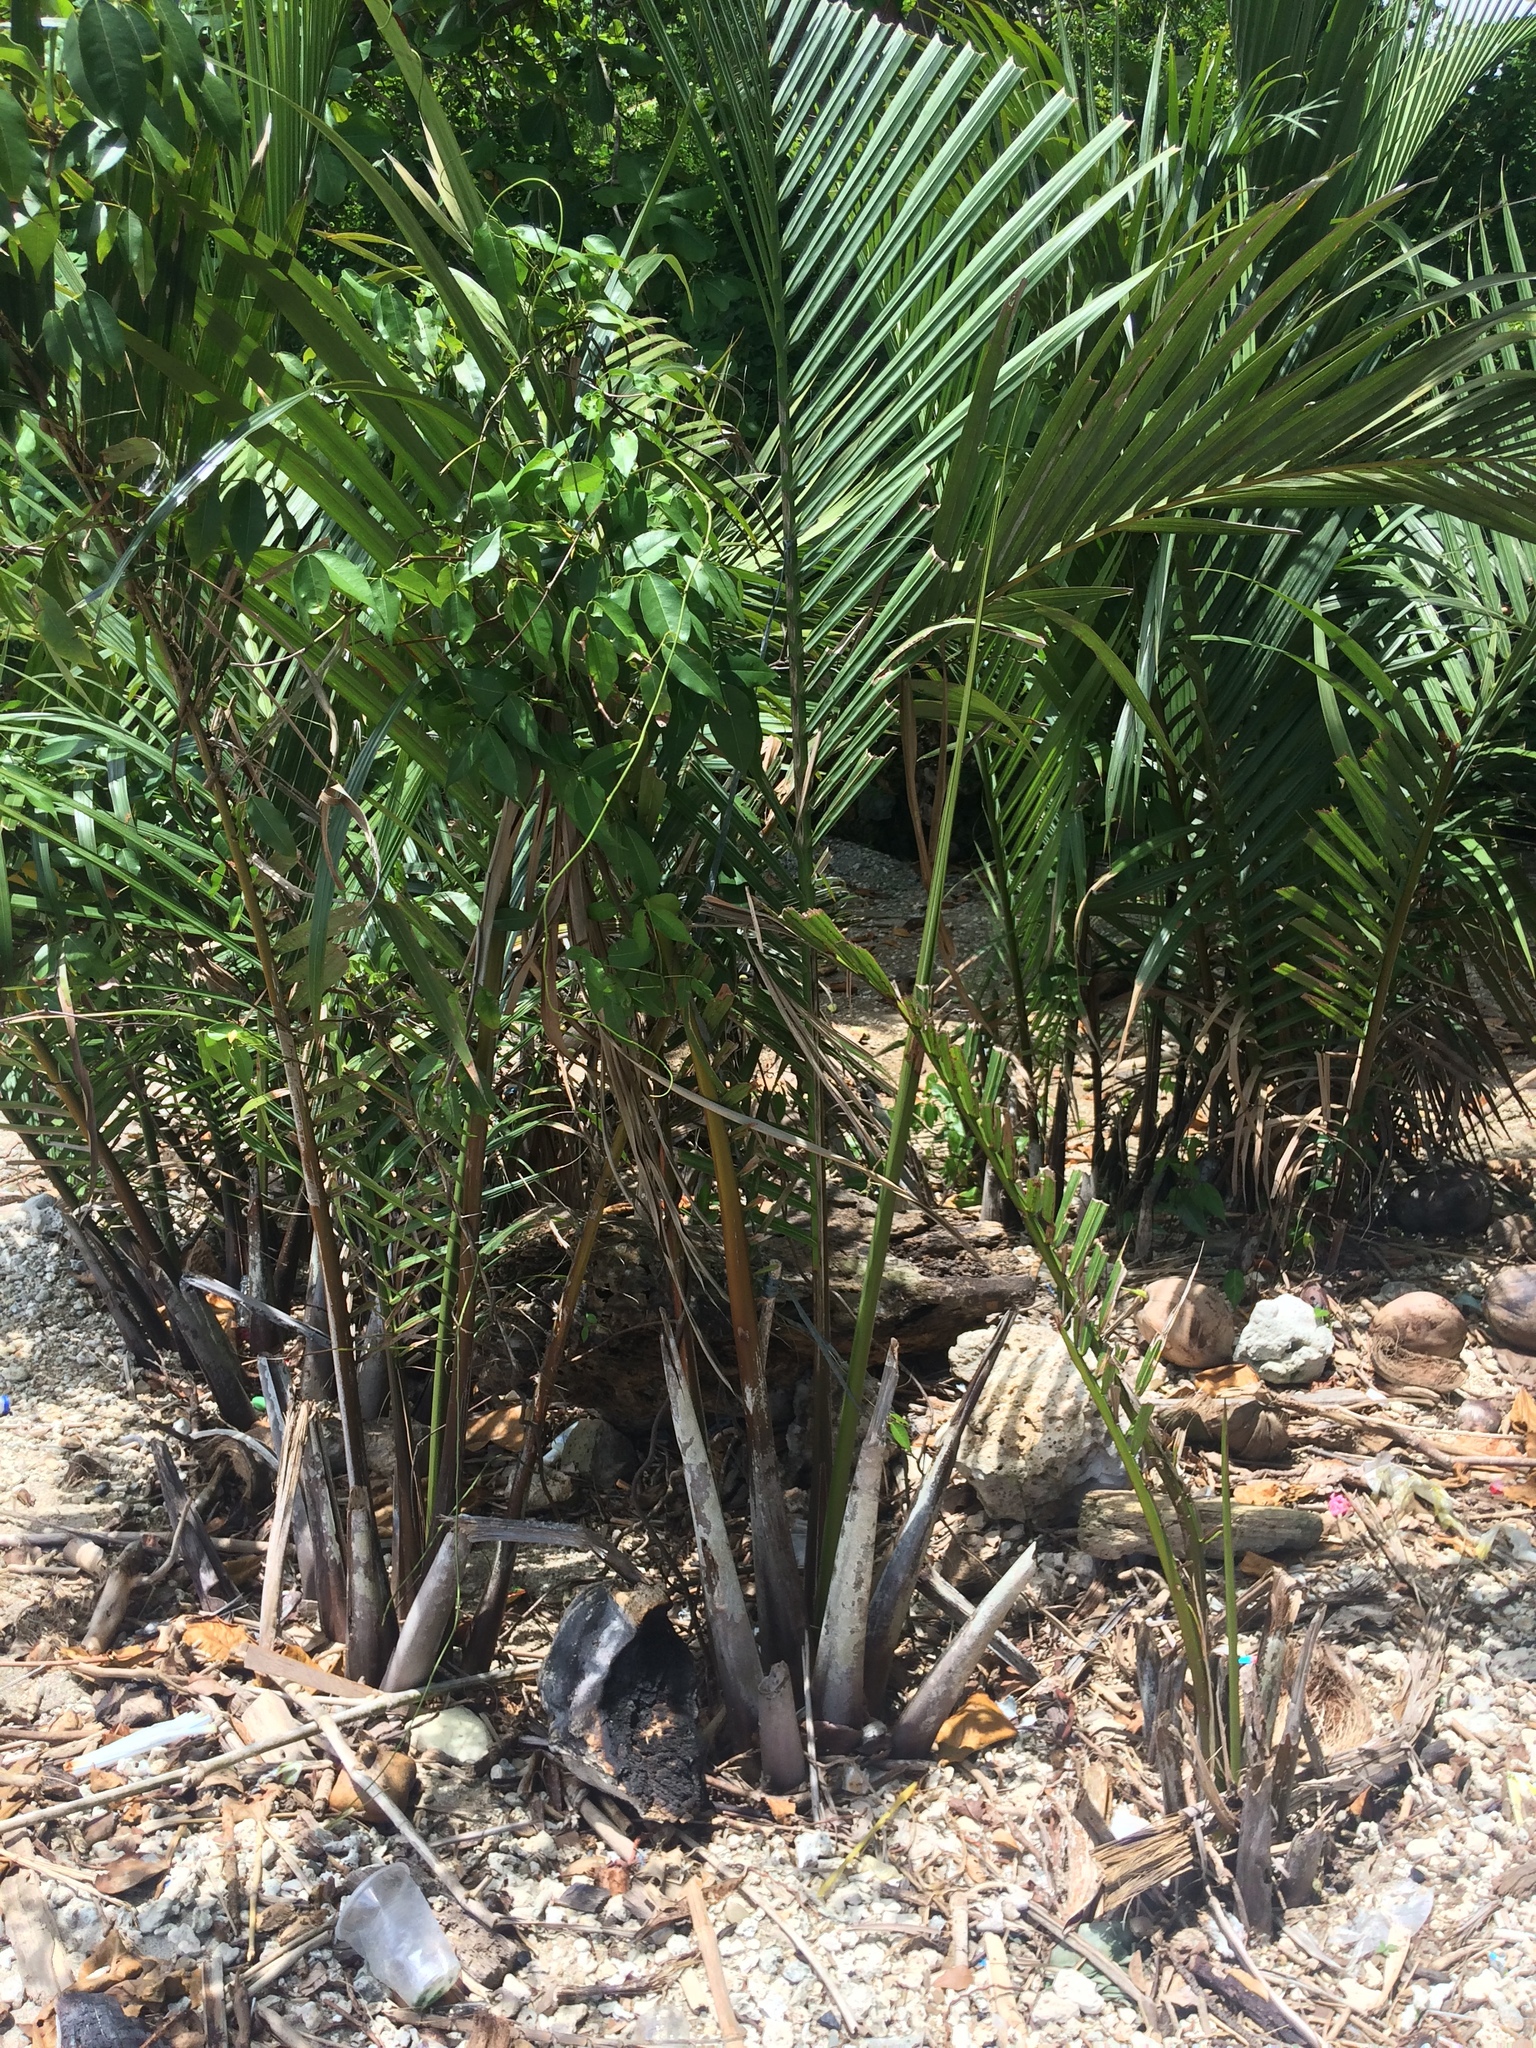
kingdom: Plantae
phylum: Tracheophyta
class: Liliopsida
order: Arecales
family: Arecaceae
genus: Nypa
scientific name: Nypa fruticans
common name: Mangrove palm
